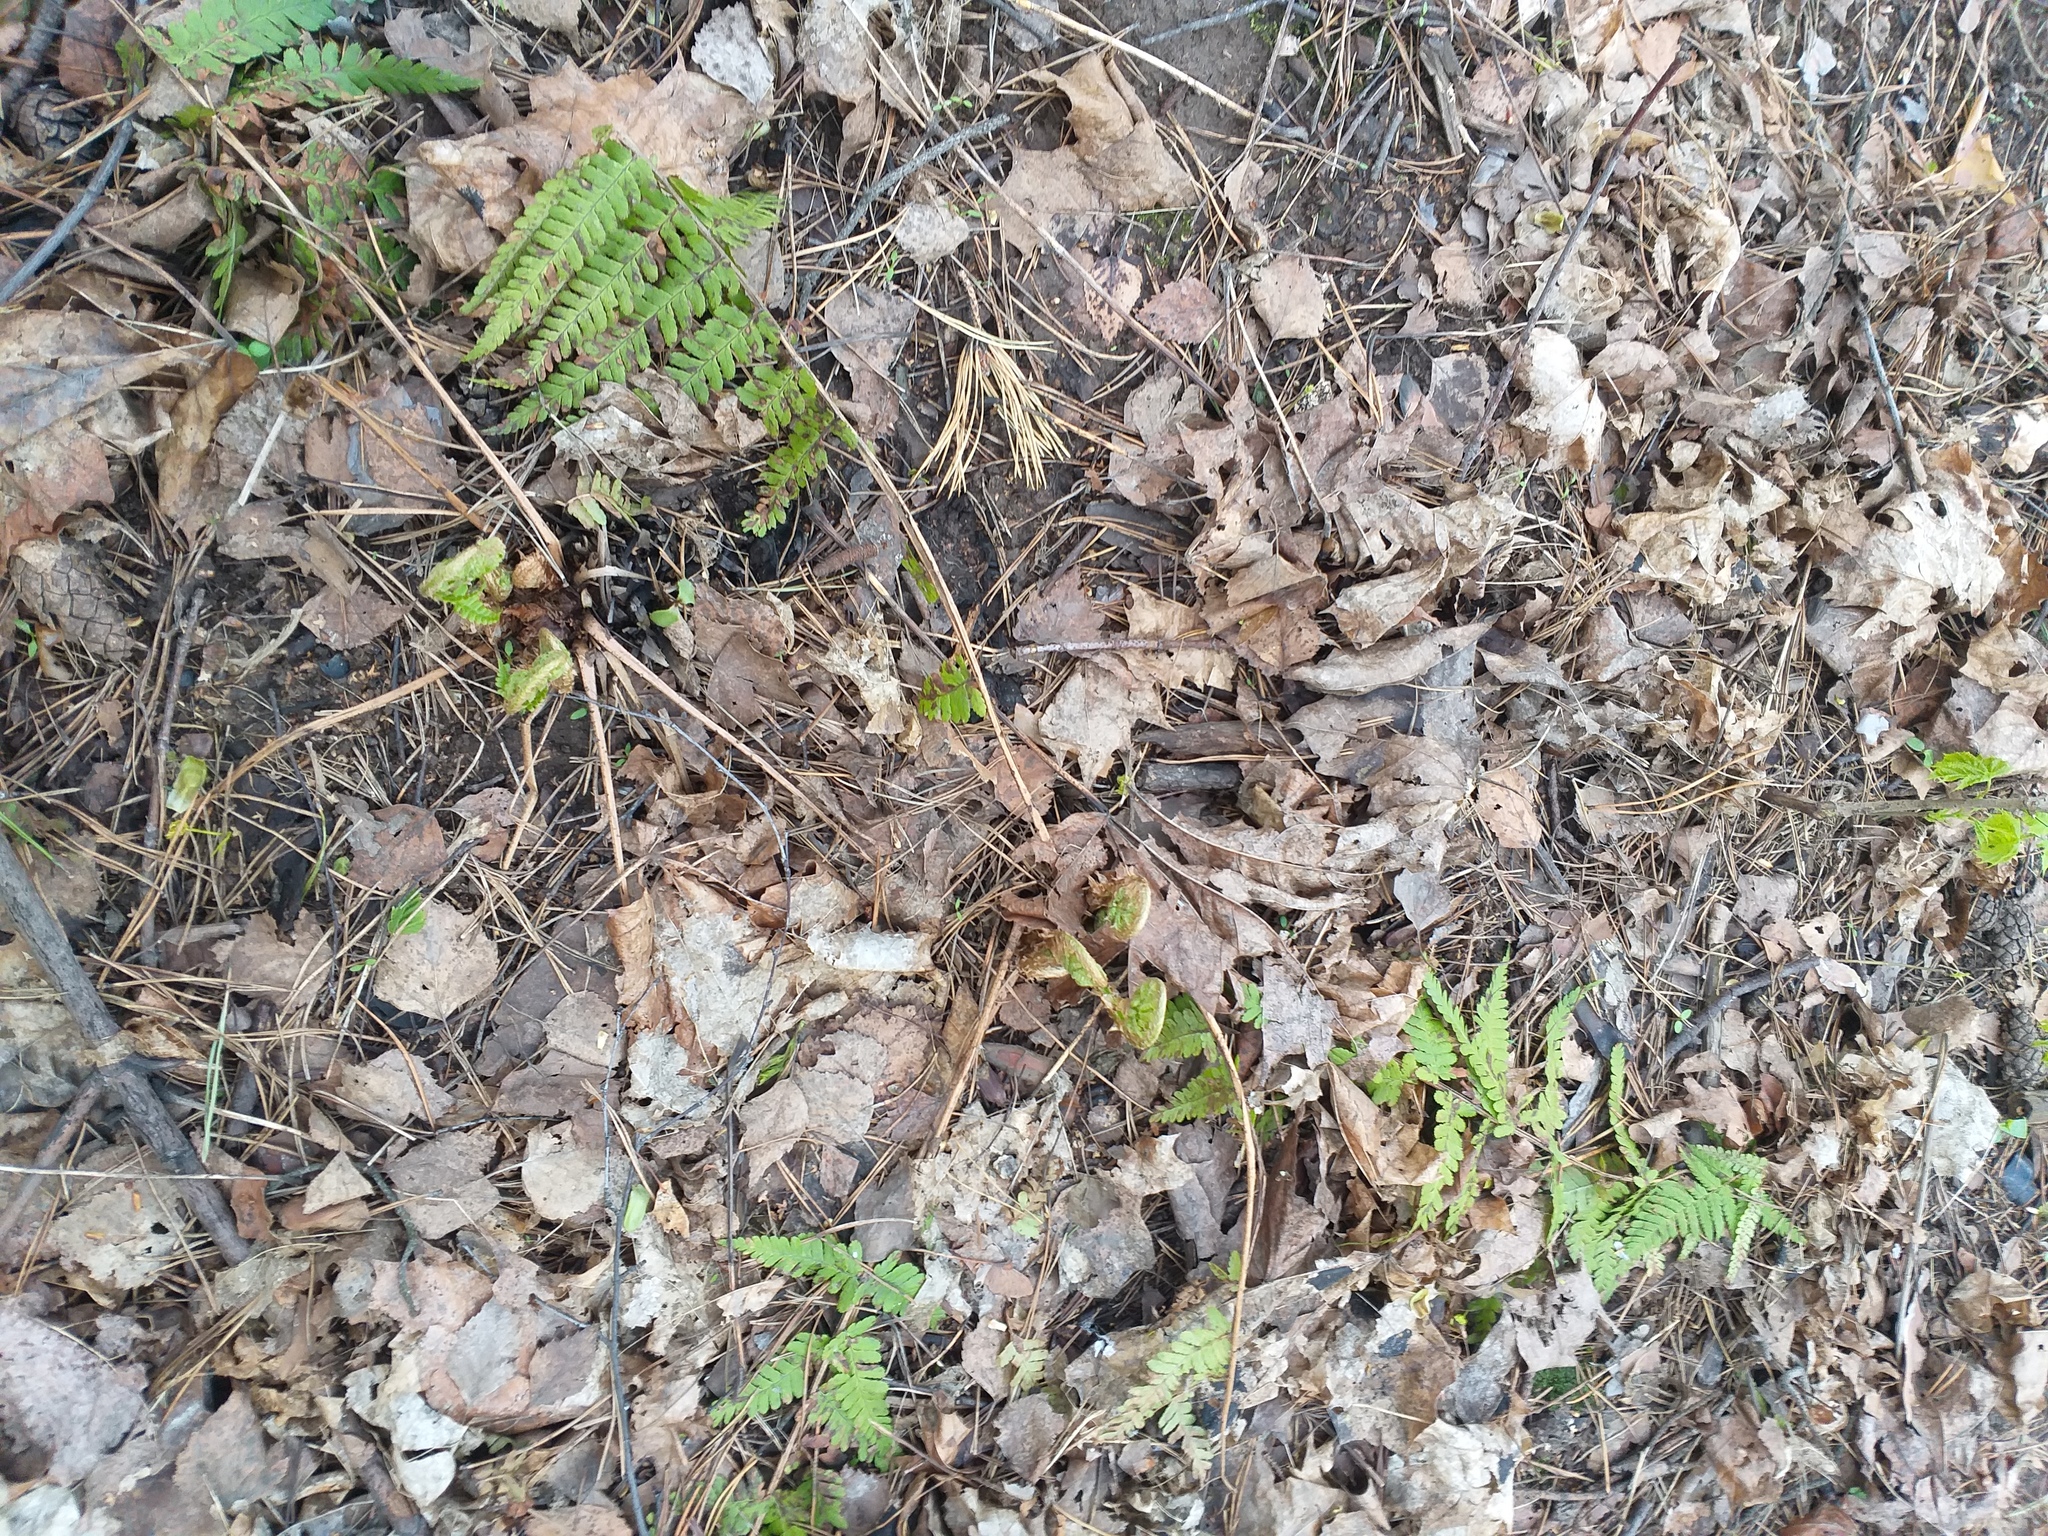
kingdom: Plantae
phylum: Tracheophyta
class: Polypodiopsida
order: Polypodiales
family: Dryopteridaceae
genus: Dryopteris
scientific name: Dryopteris filix-mas
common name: Male fern
